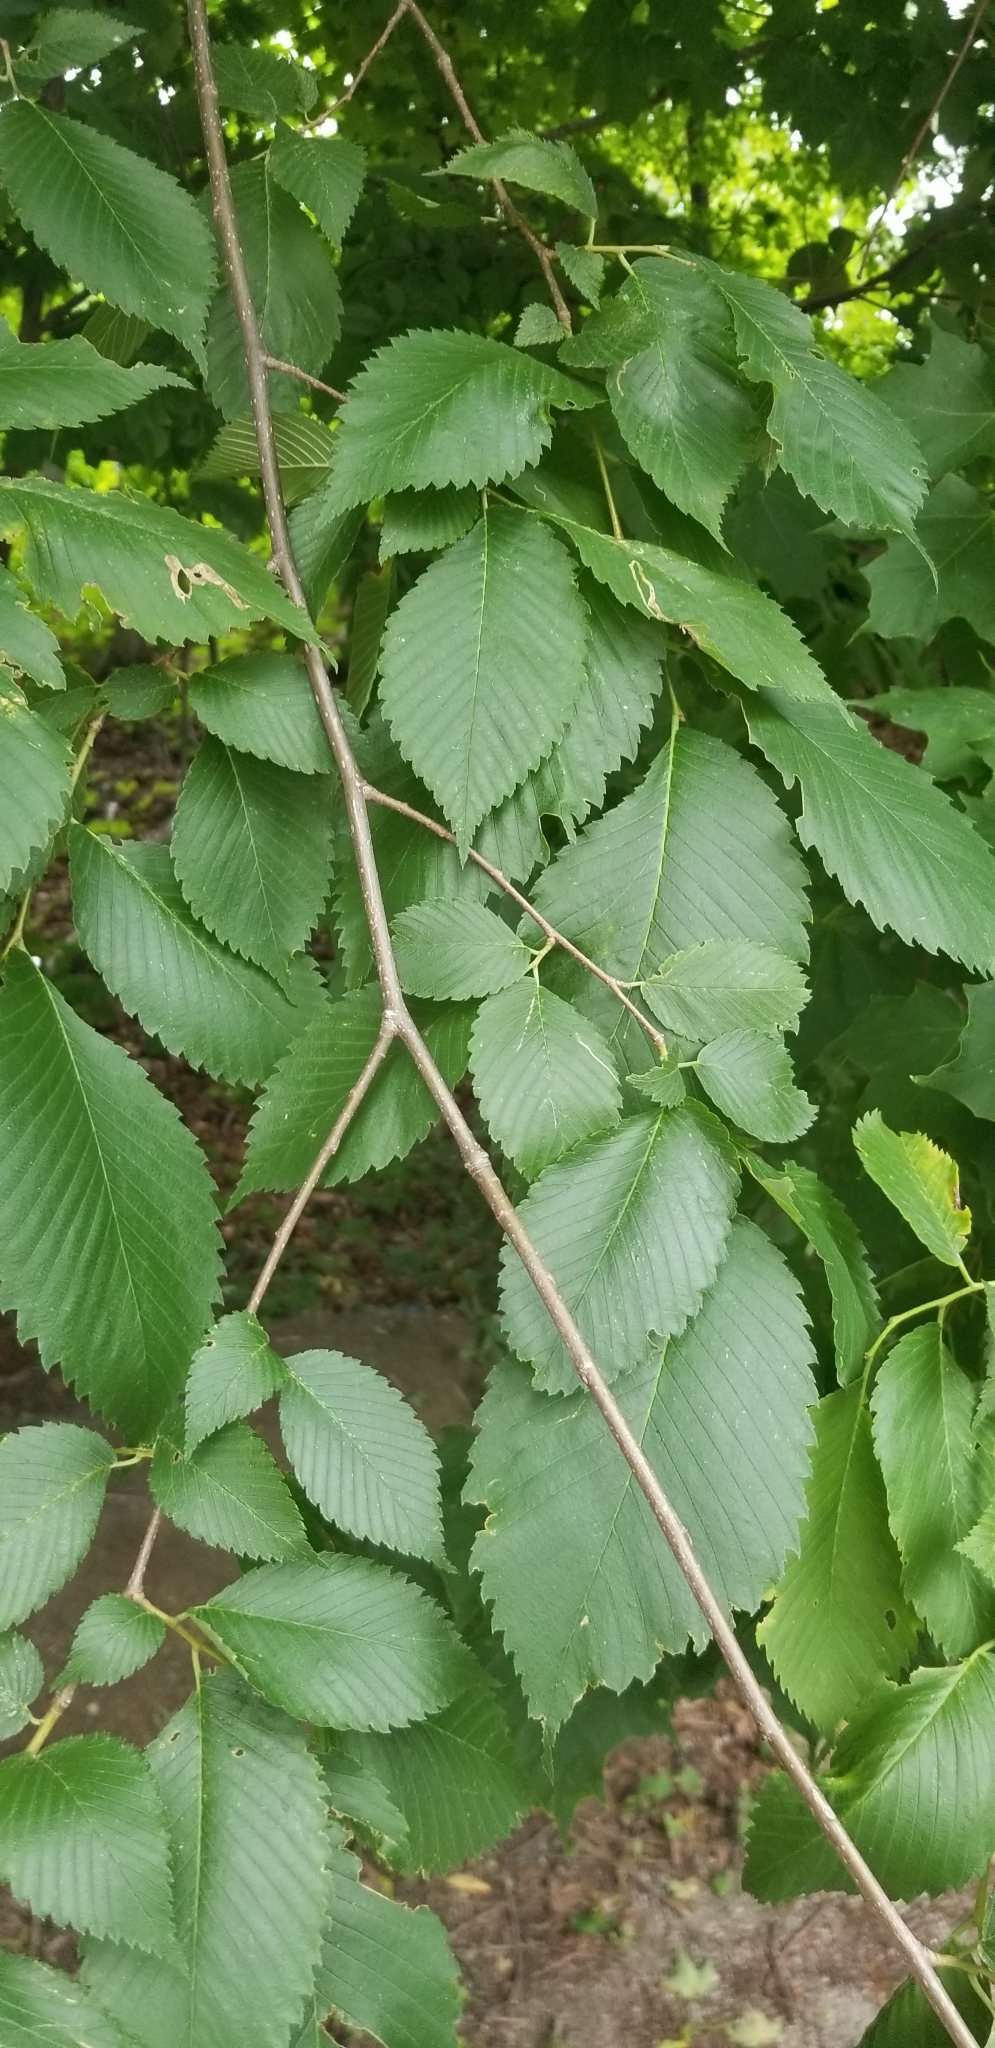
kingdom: Plantae
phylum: Tracheophyta
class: Magnoliopsida
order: Rosales
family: Ulmaceae
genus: Ulmus
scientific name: Ulmus americana
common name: American elm
